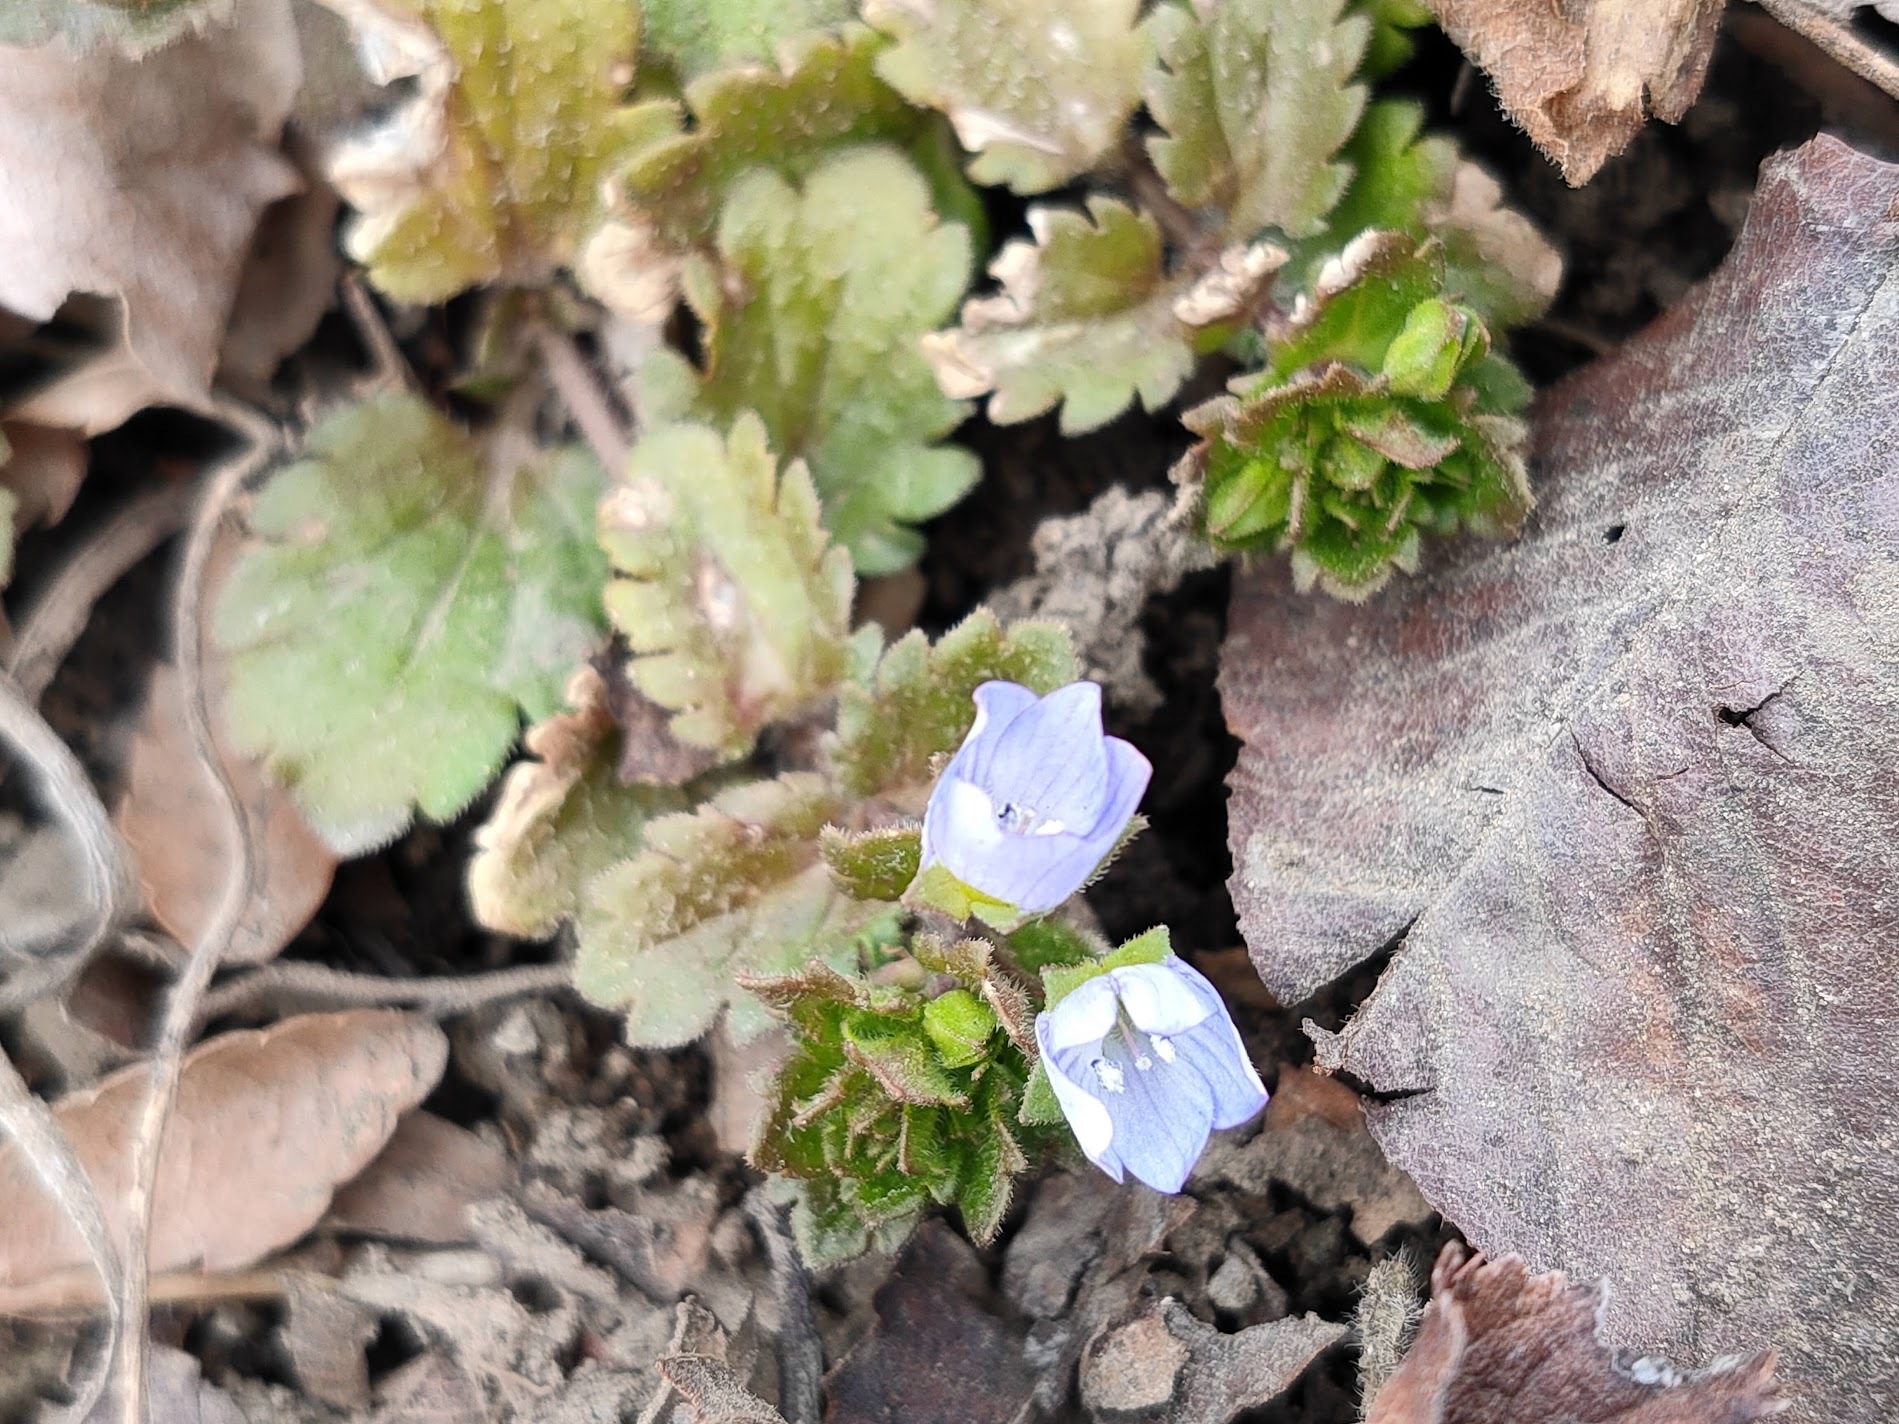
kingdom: Plantae
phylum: Tracheophyta
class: Magnoliopsida
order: Lamiales
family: Plantaginaceae
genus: Veronica
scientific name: Veronica persica
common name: Common field-speedwell
